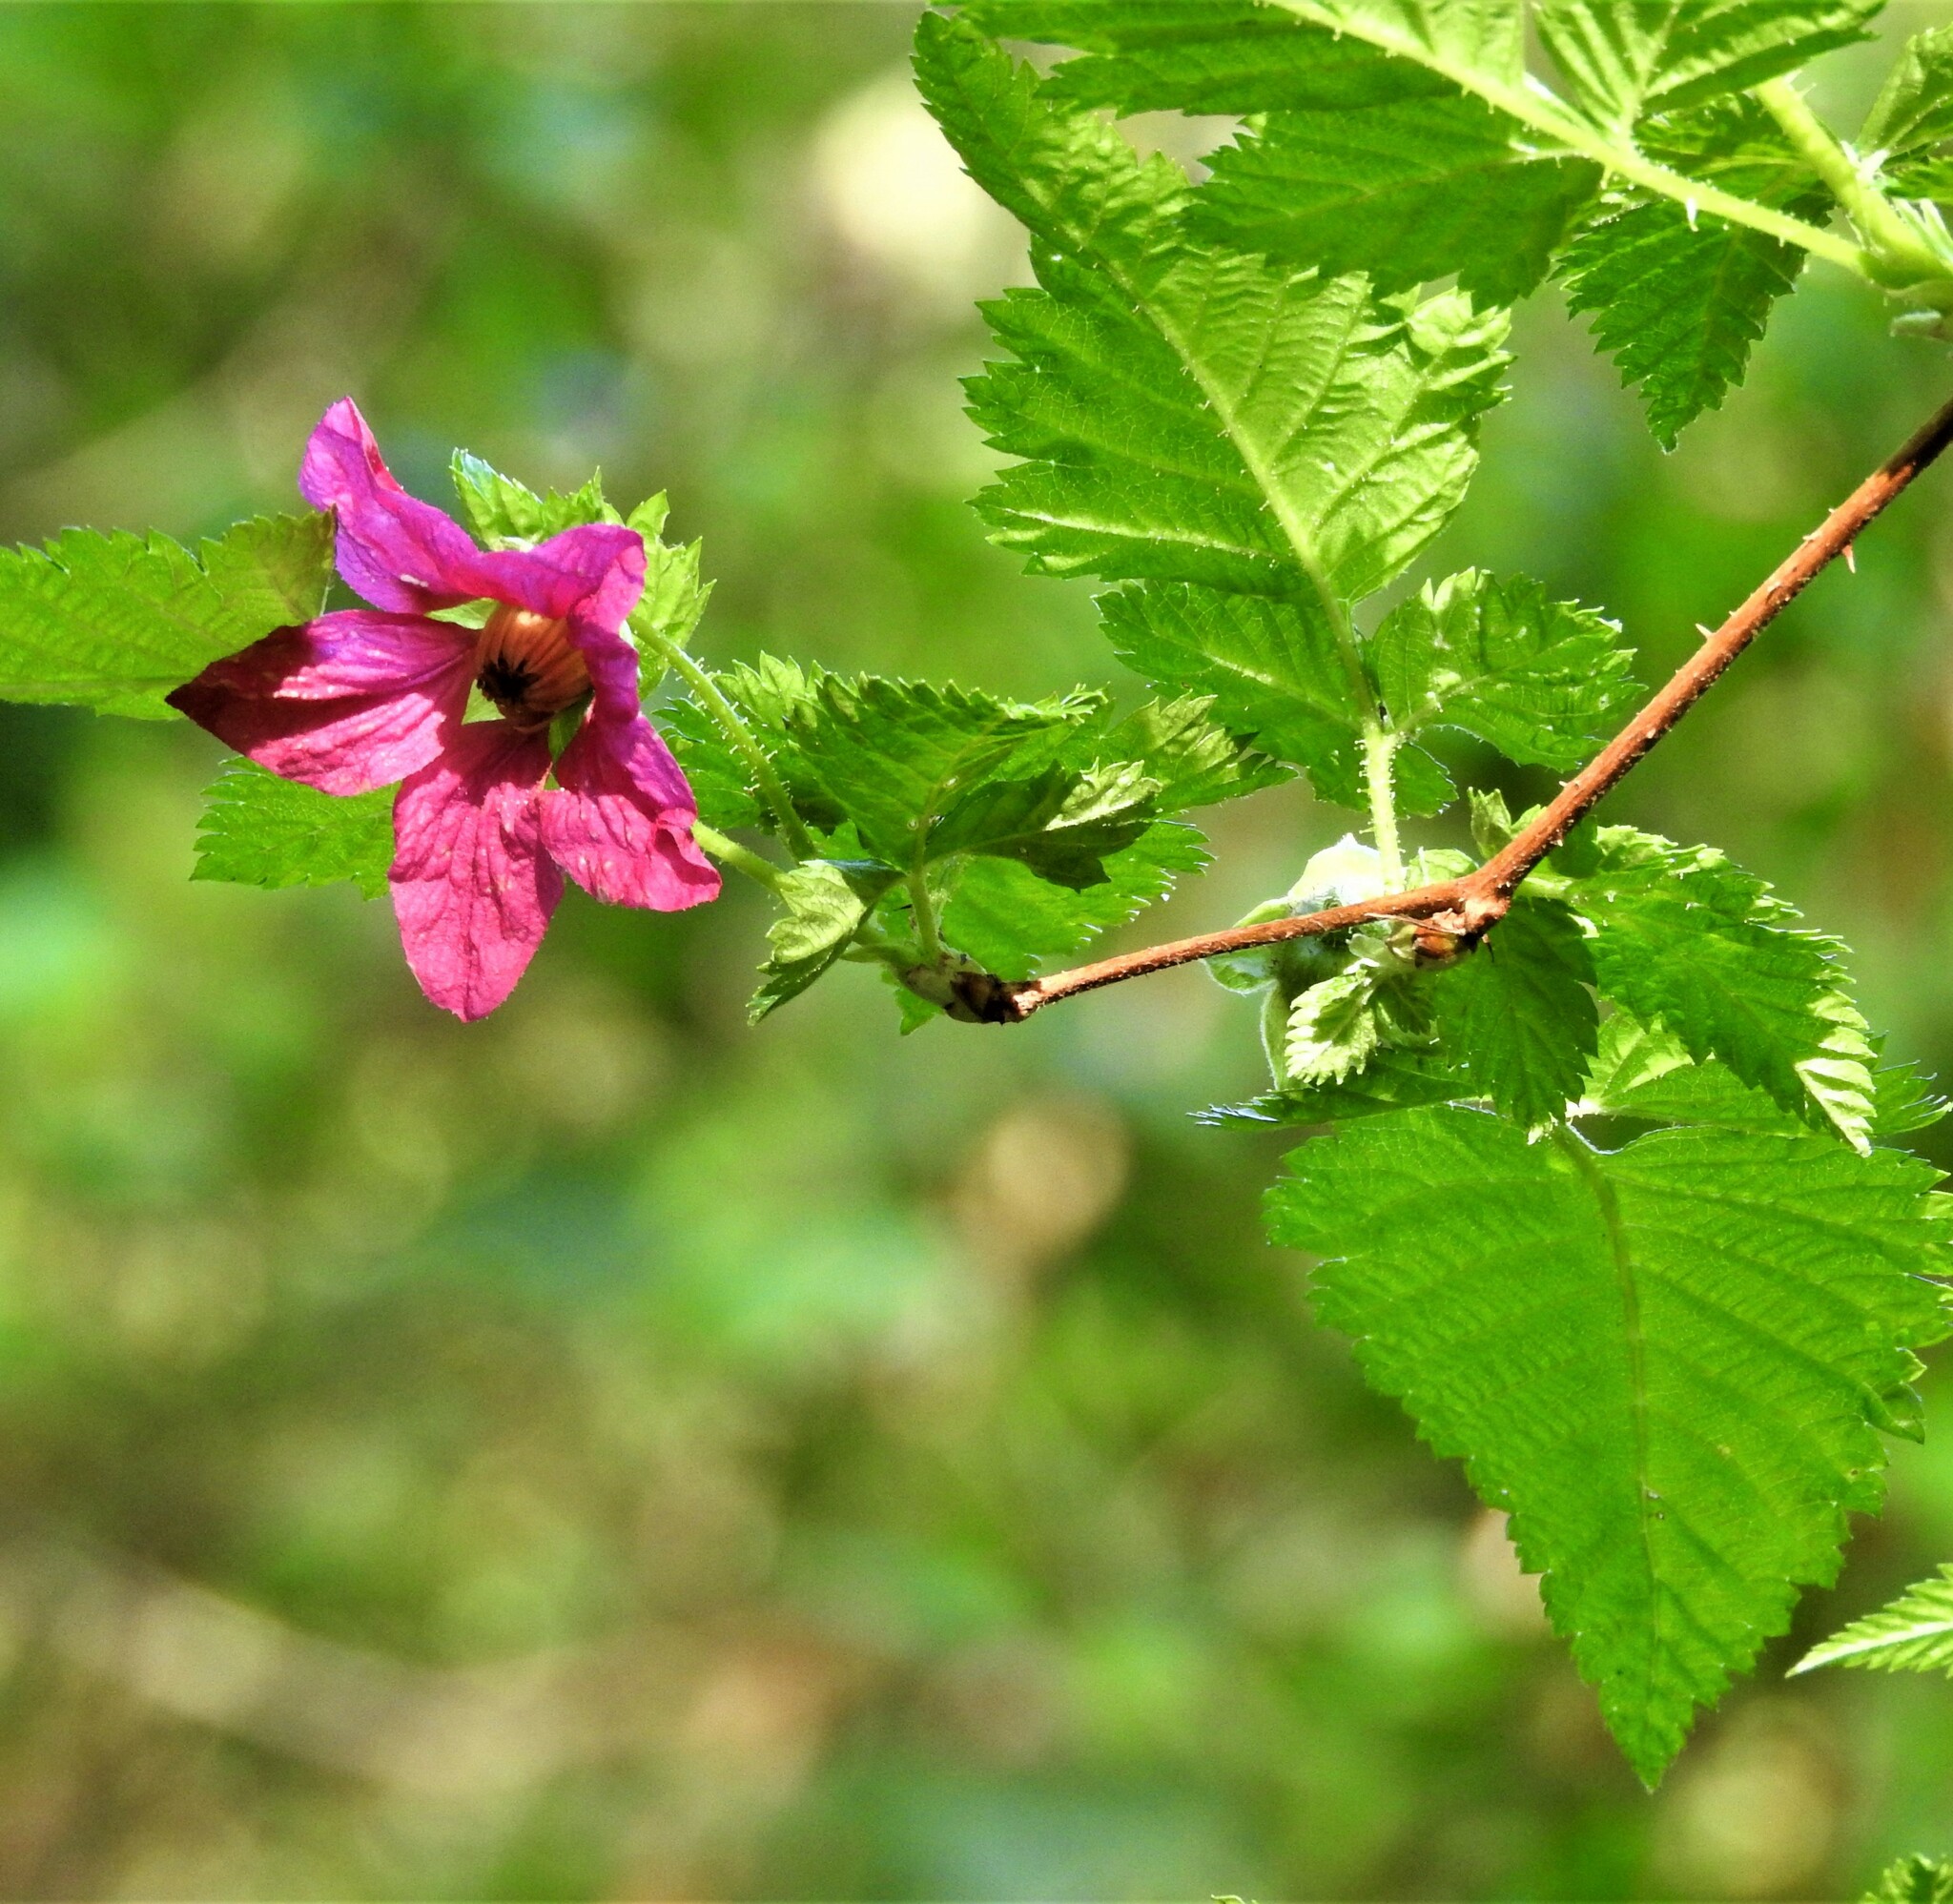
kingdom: Plantae
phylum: Tracheophyta
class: Magnoliopsida
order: Rosales
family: Rosaceae
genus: Rubus
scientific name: Rubus spectabilis
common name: Salmonberry
